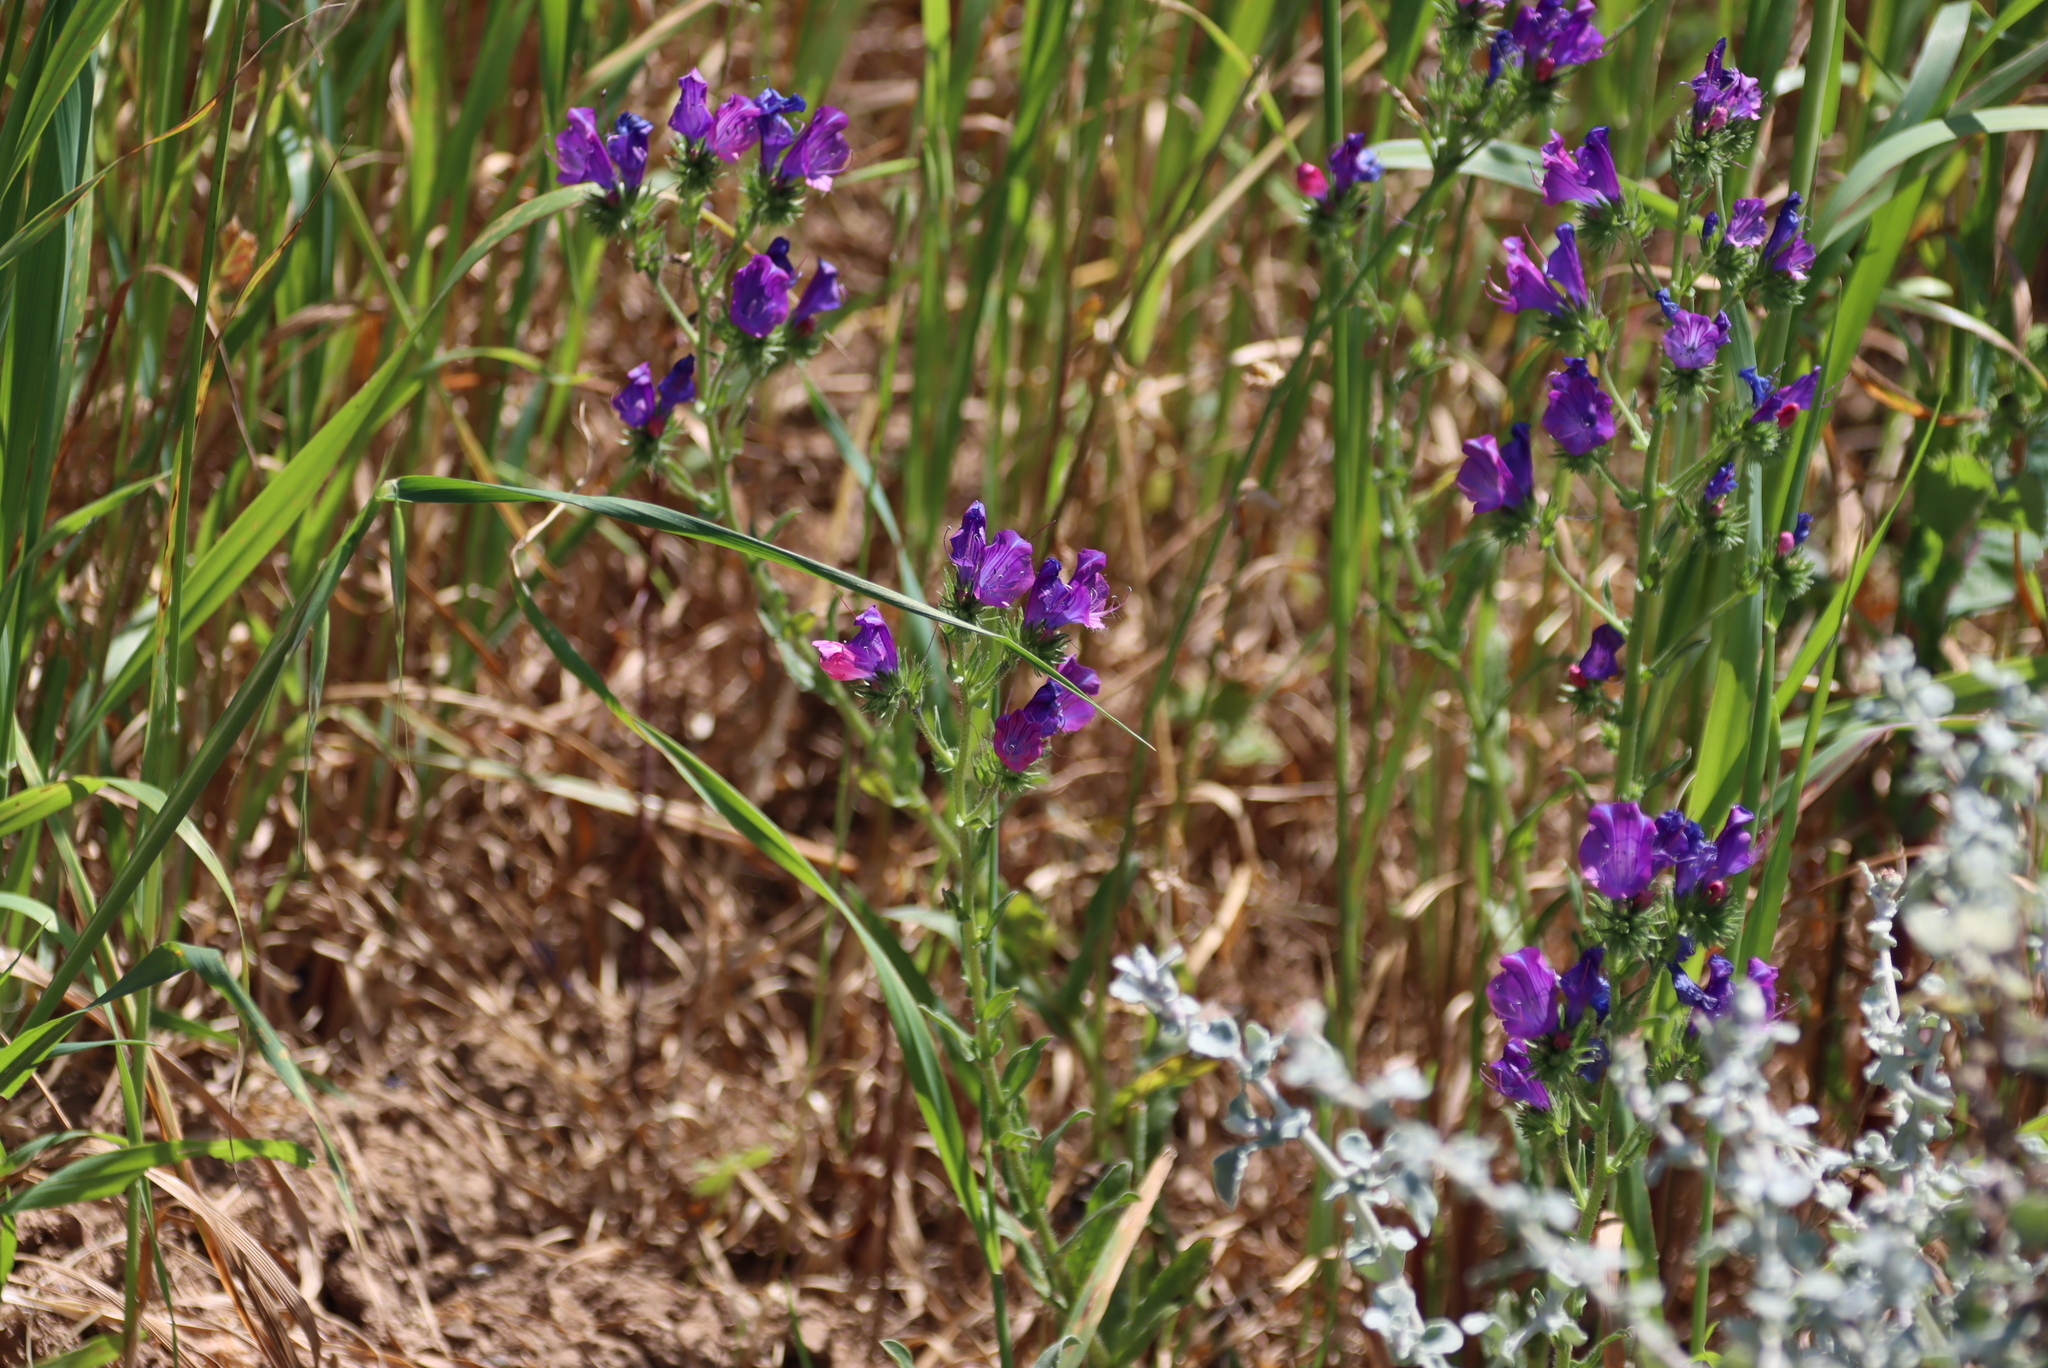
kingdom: Plantae
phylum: Tracheophyta
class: Magnoliopsida
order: Boraginales
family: Boraginaceae
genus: Echium
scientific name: Echium plantagineum
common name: Purple viper's-bugloss
